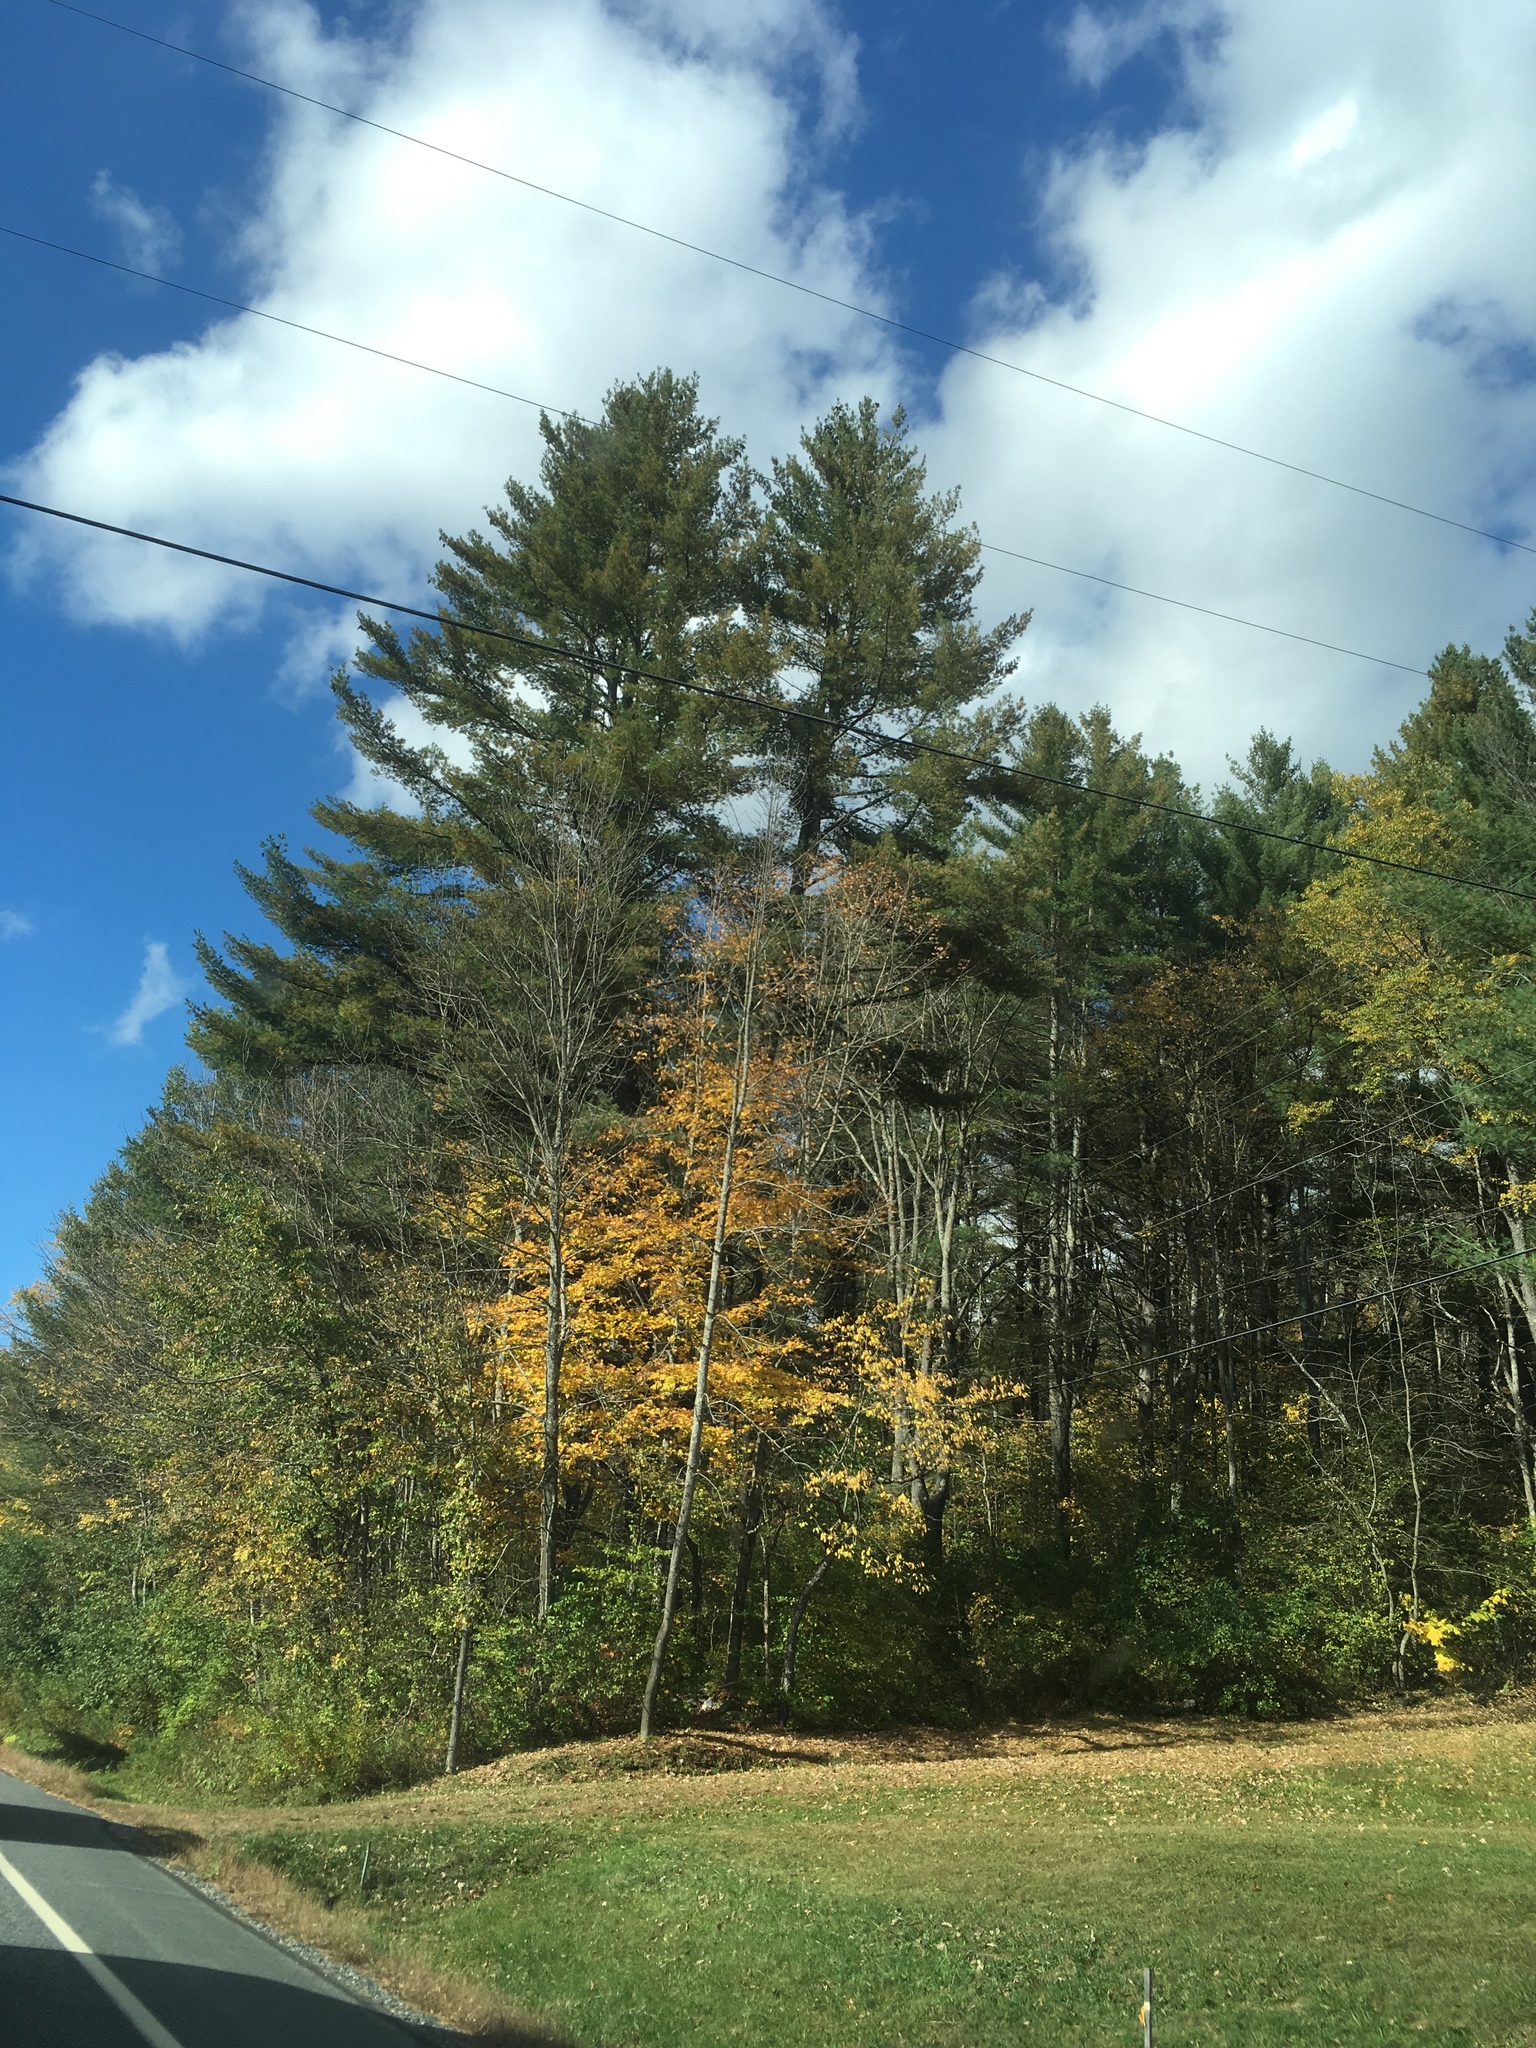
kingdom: Plantae
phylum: Tracheophyta
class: Pinopsida
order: Pinales
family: Pinaceae
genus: Pinus
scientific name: Pinus strobus
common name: Weymouth pine
